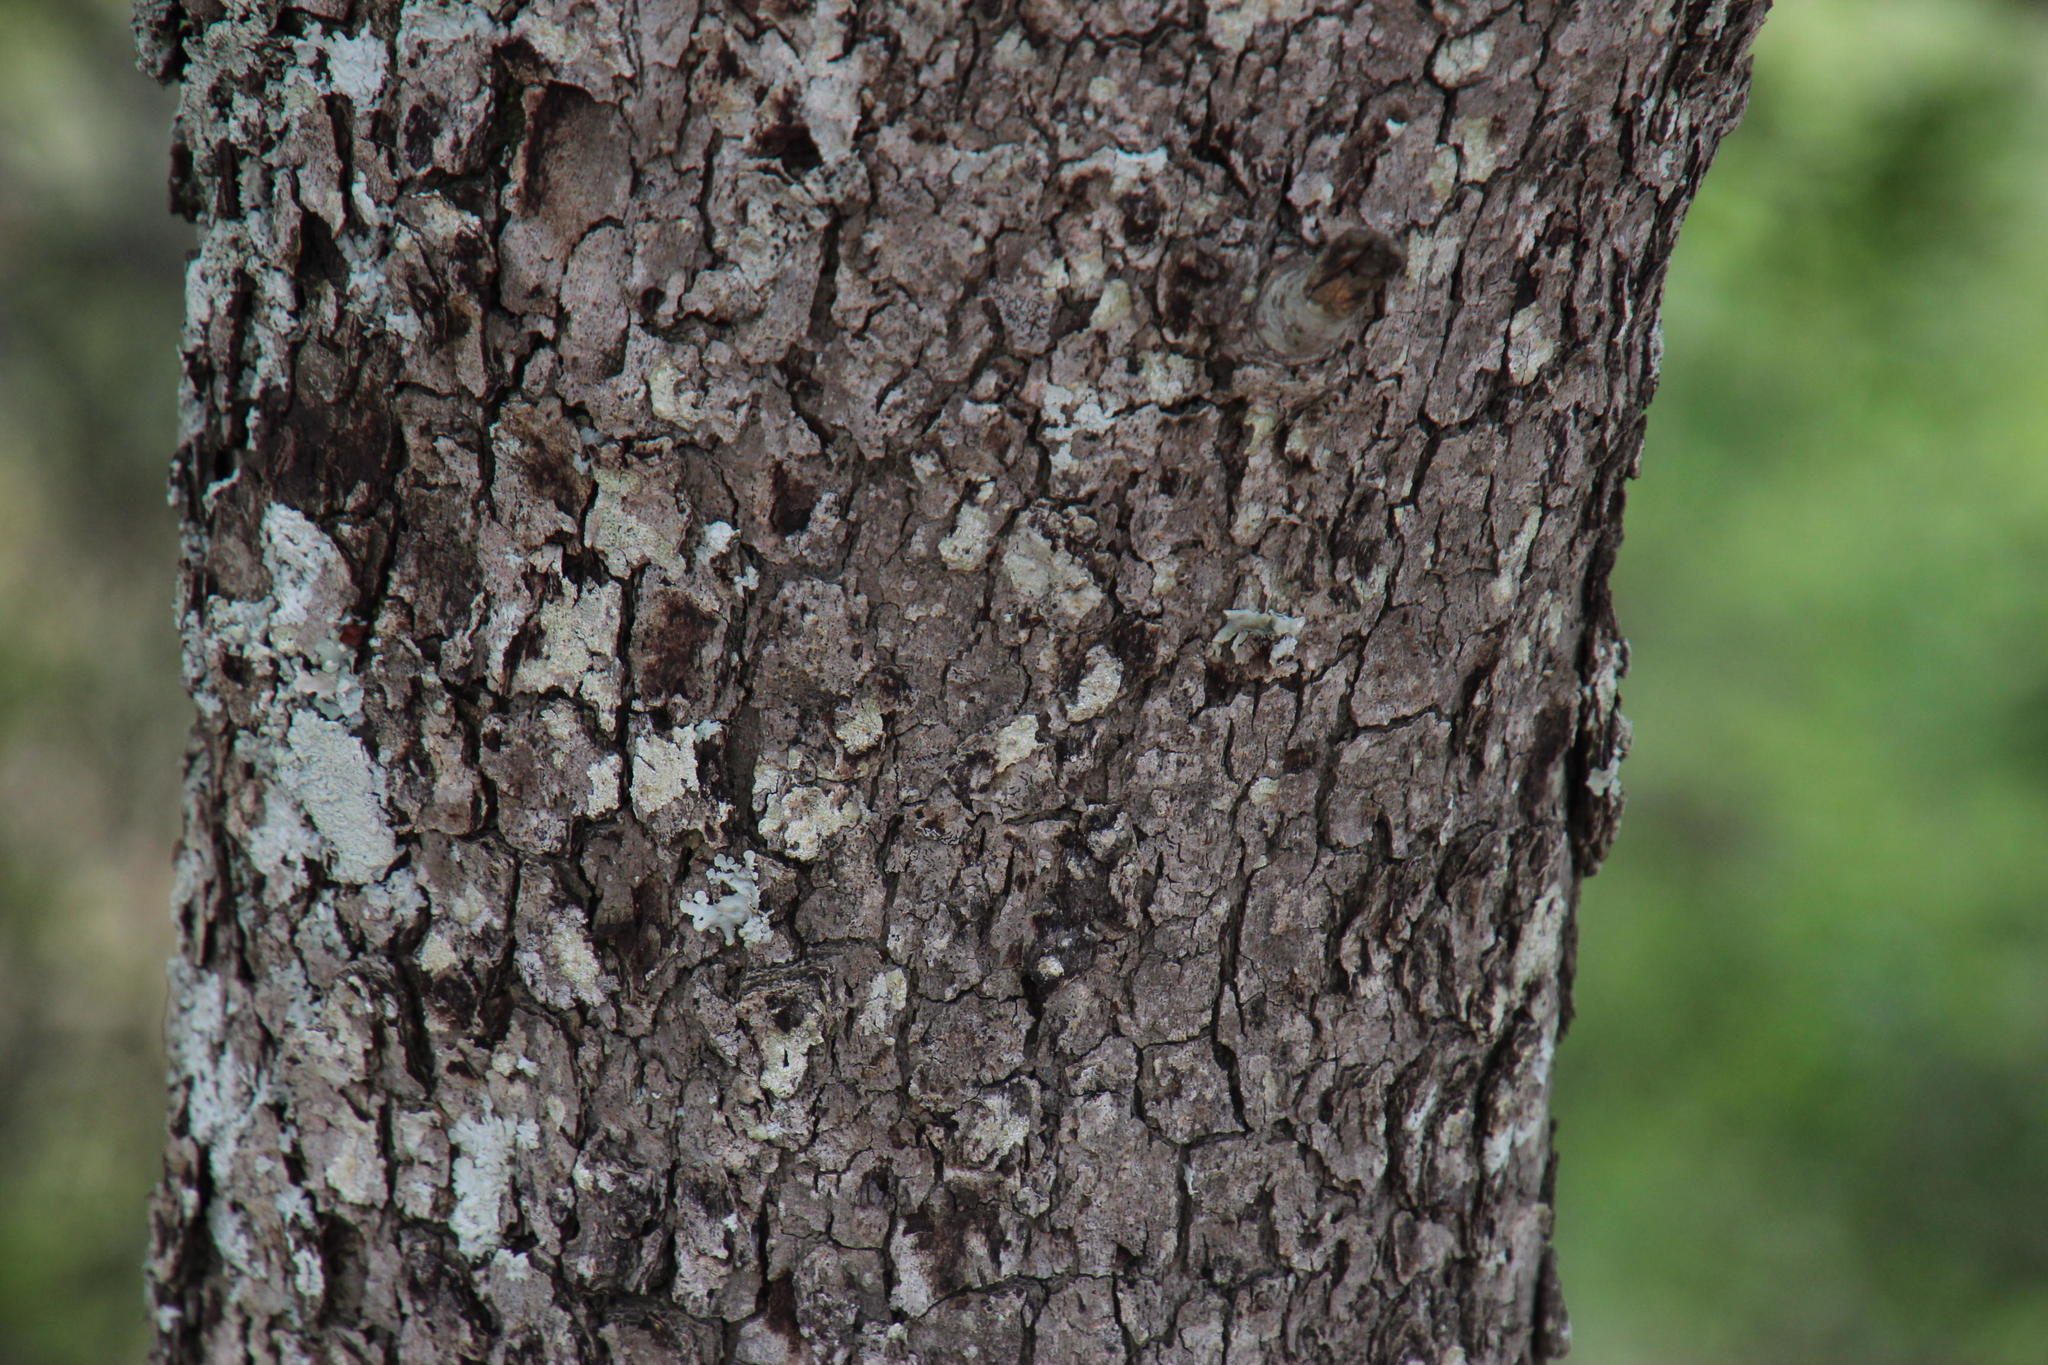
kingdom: Plantae
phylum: Tracheophyta
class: Magnoliopsida
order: Ericales
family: Ebenaceae
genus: Euclea
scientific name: Euclea undulata
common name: Small-leaved guarri
